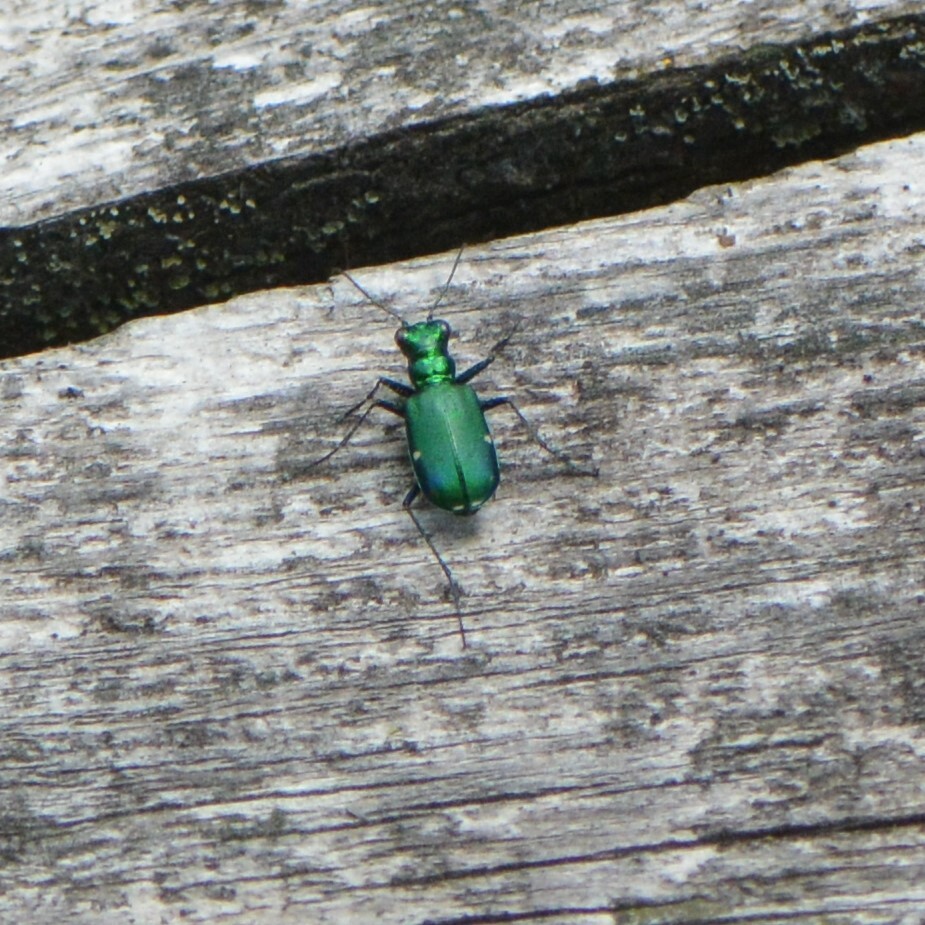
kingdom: Animalia
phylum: Arthropoda
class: Insecta
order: Coleoptera
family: Carabidae
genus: Cicindela
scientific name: Cicindela sexguttata
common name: Six-spotted tiger beetle
